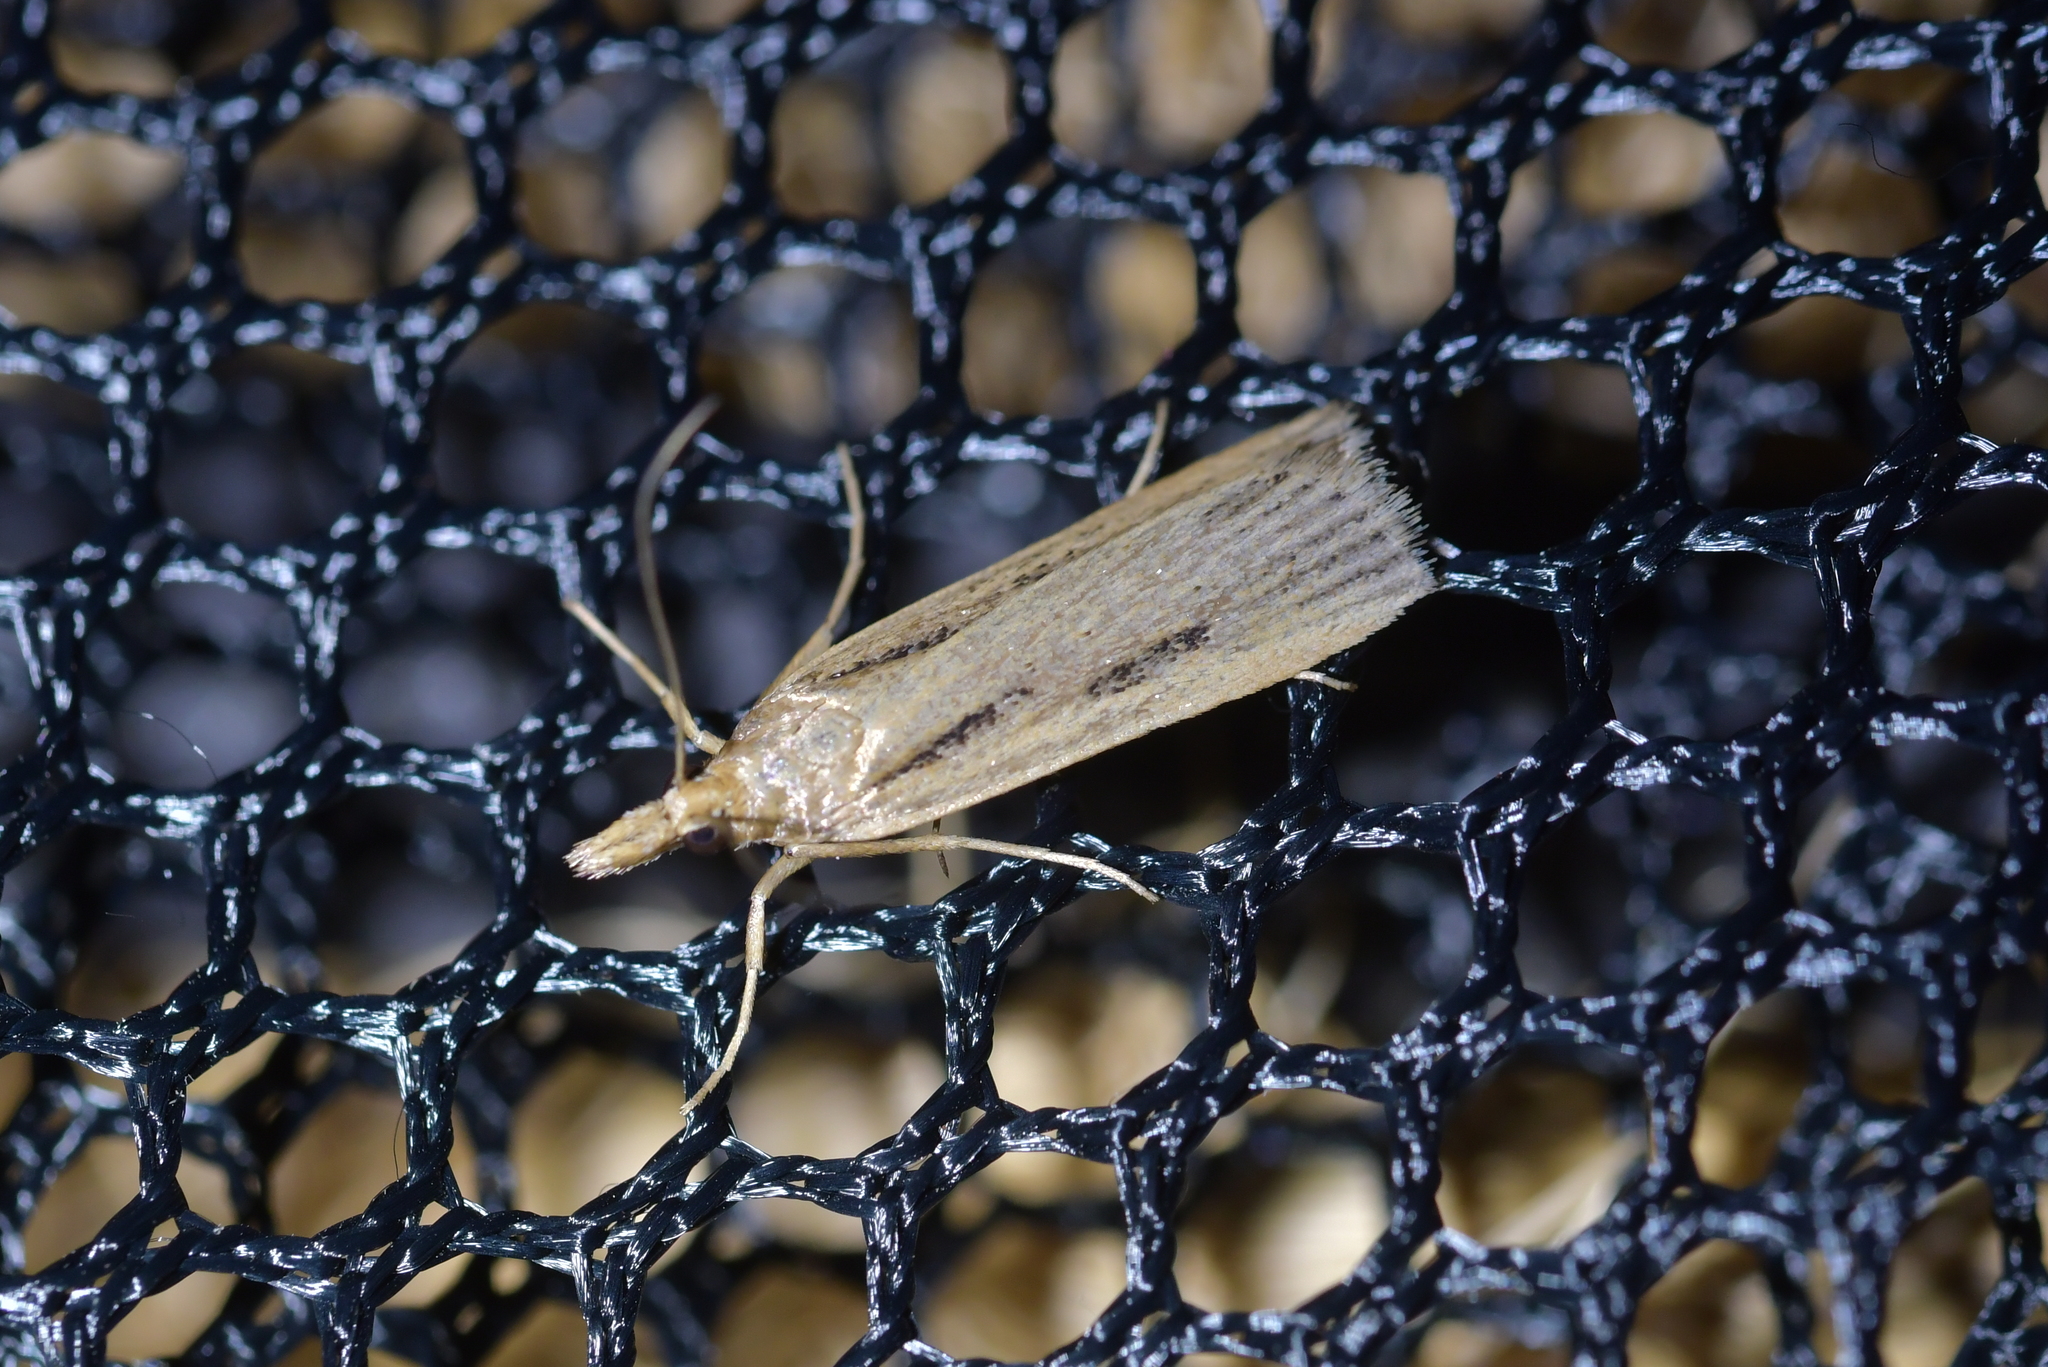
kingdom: Animalia
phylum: Arthropoda
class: Insecta
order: Lepidoptera
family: Crambidae
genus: Eudonia
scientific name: Eudonia sabulosella
